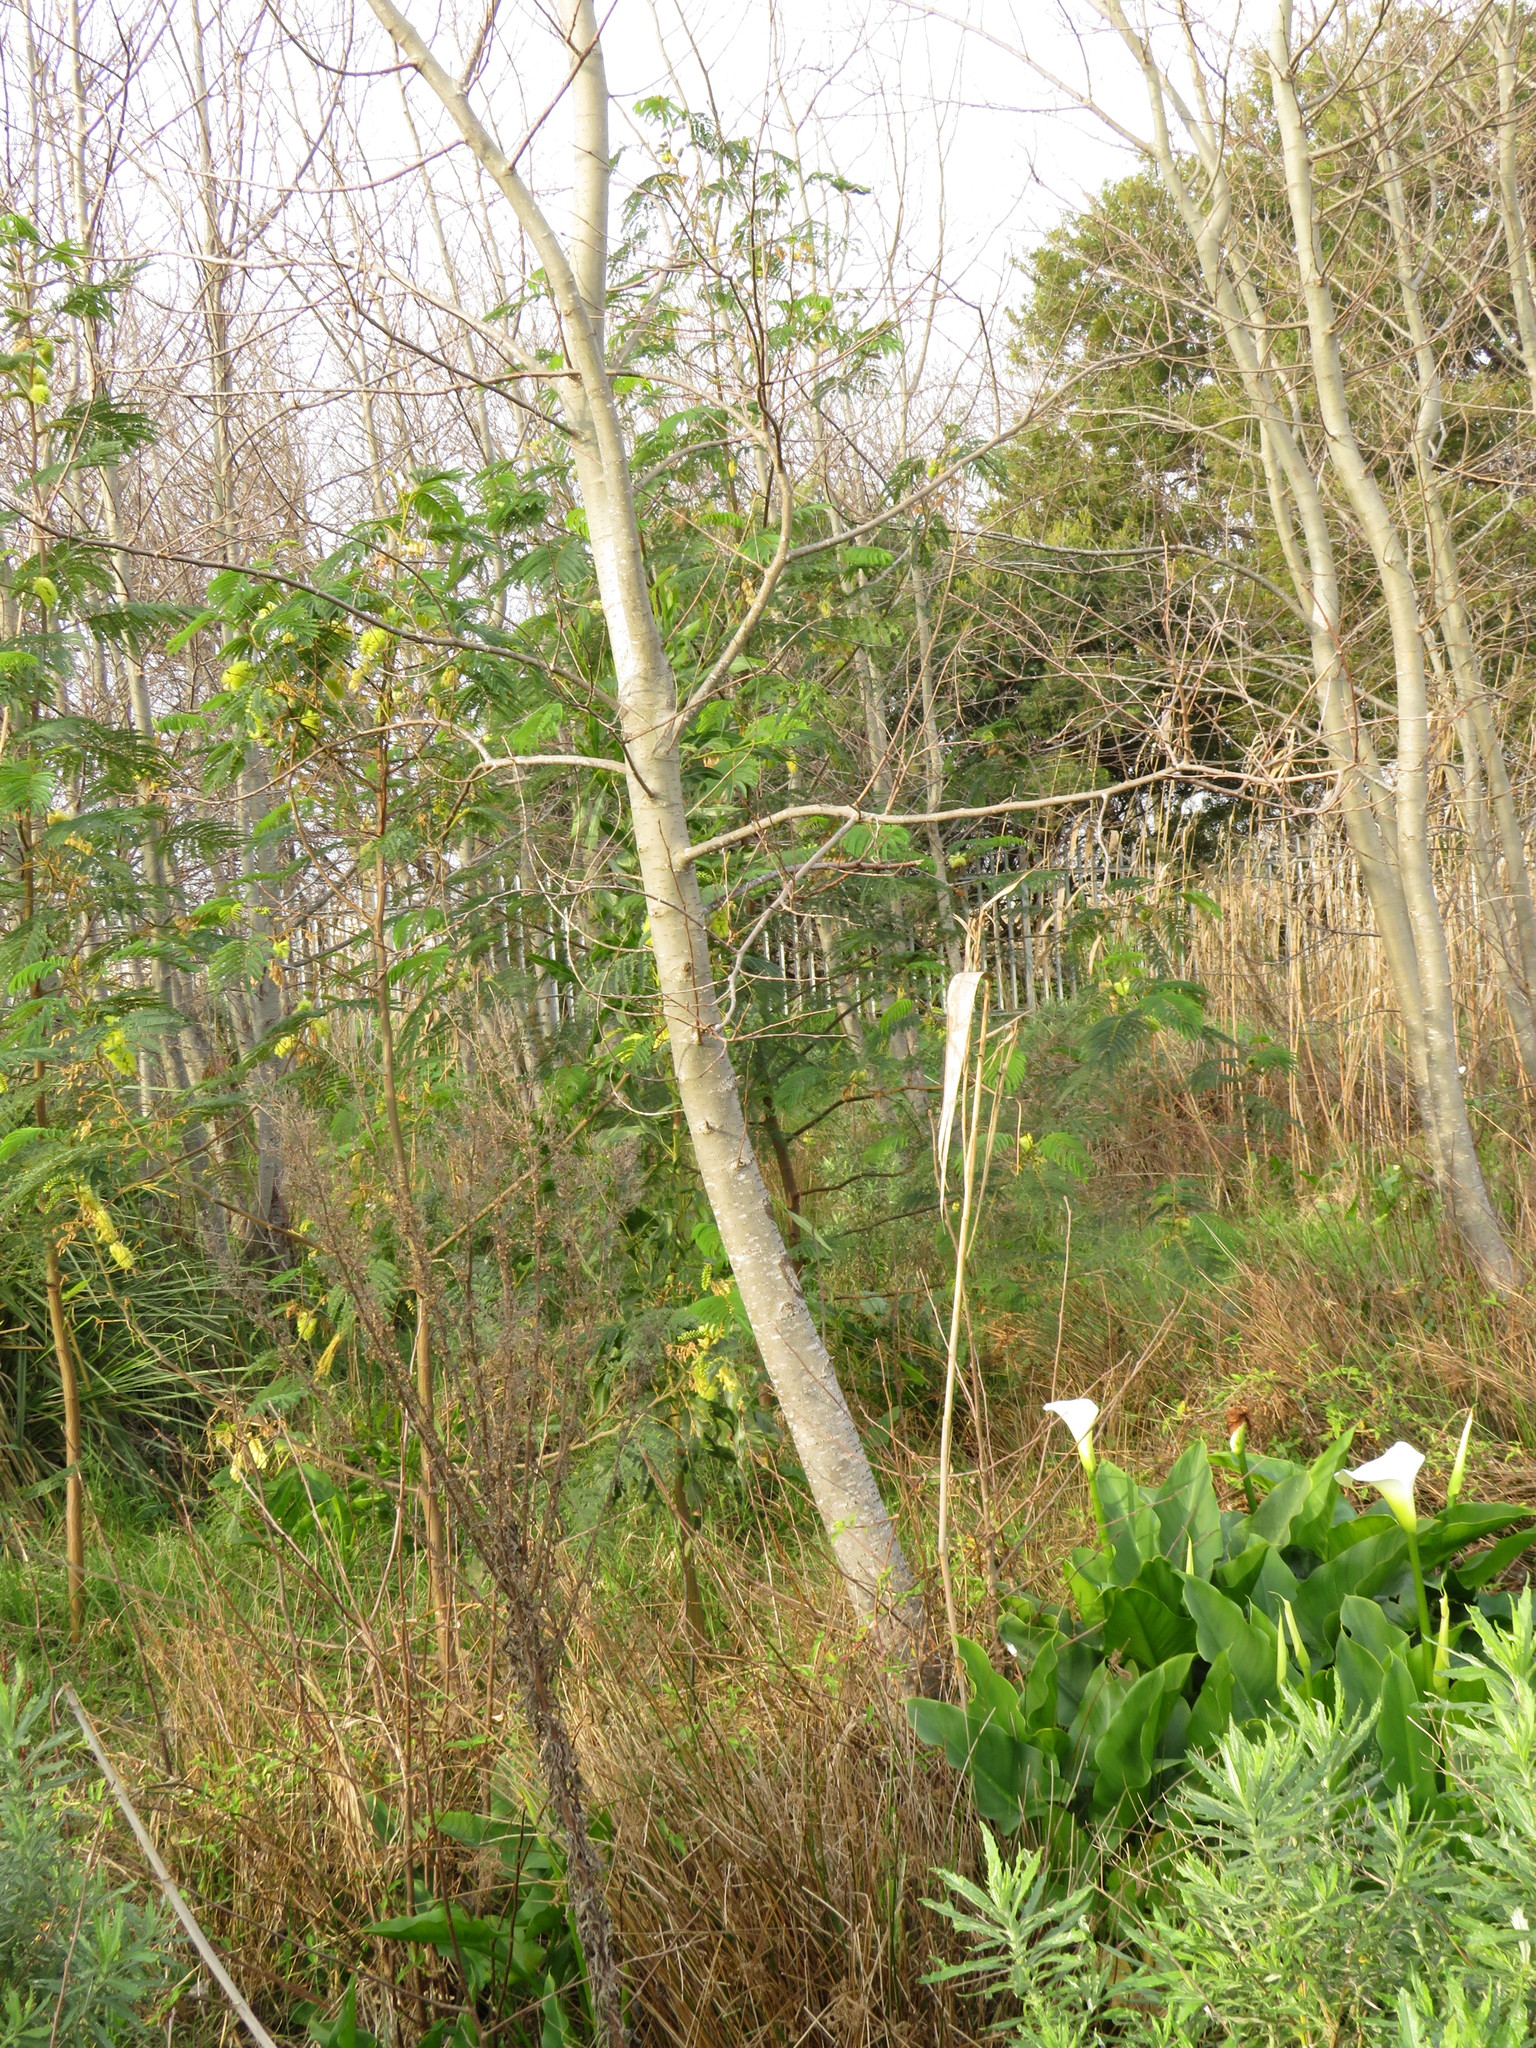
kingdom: Plantae
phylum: Tracheophyta
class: Magnoliopsida
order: Fabales
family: Fabaceae
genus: Acacia
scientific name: Acacia saligna
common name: Orange wattle
